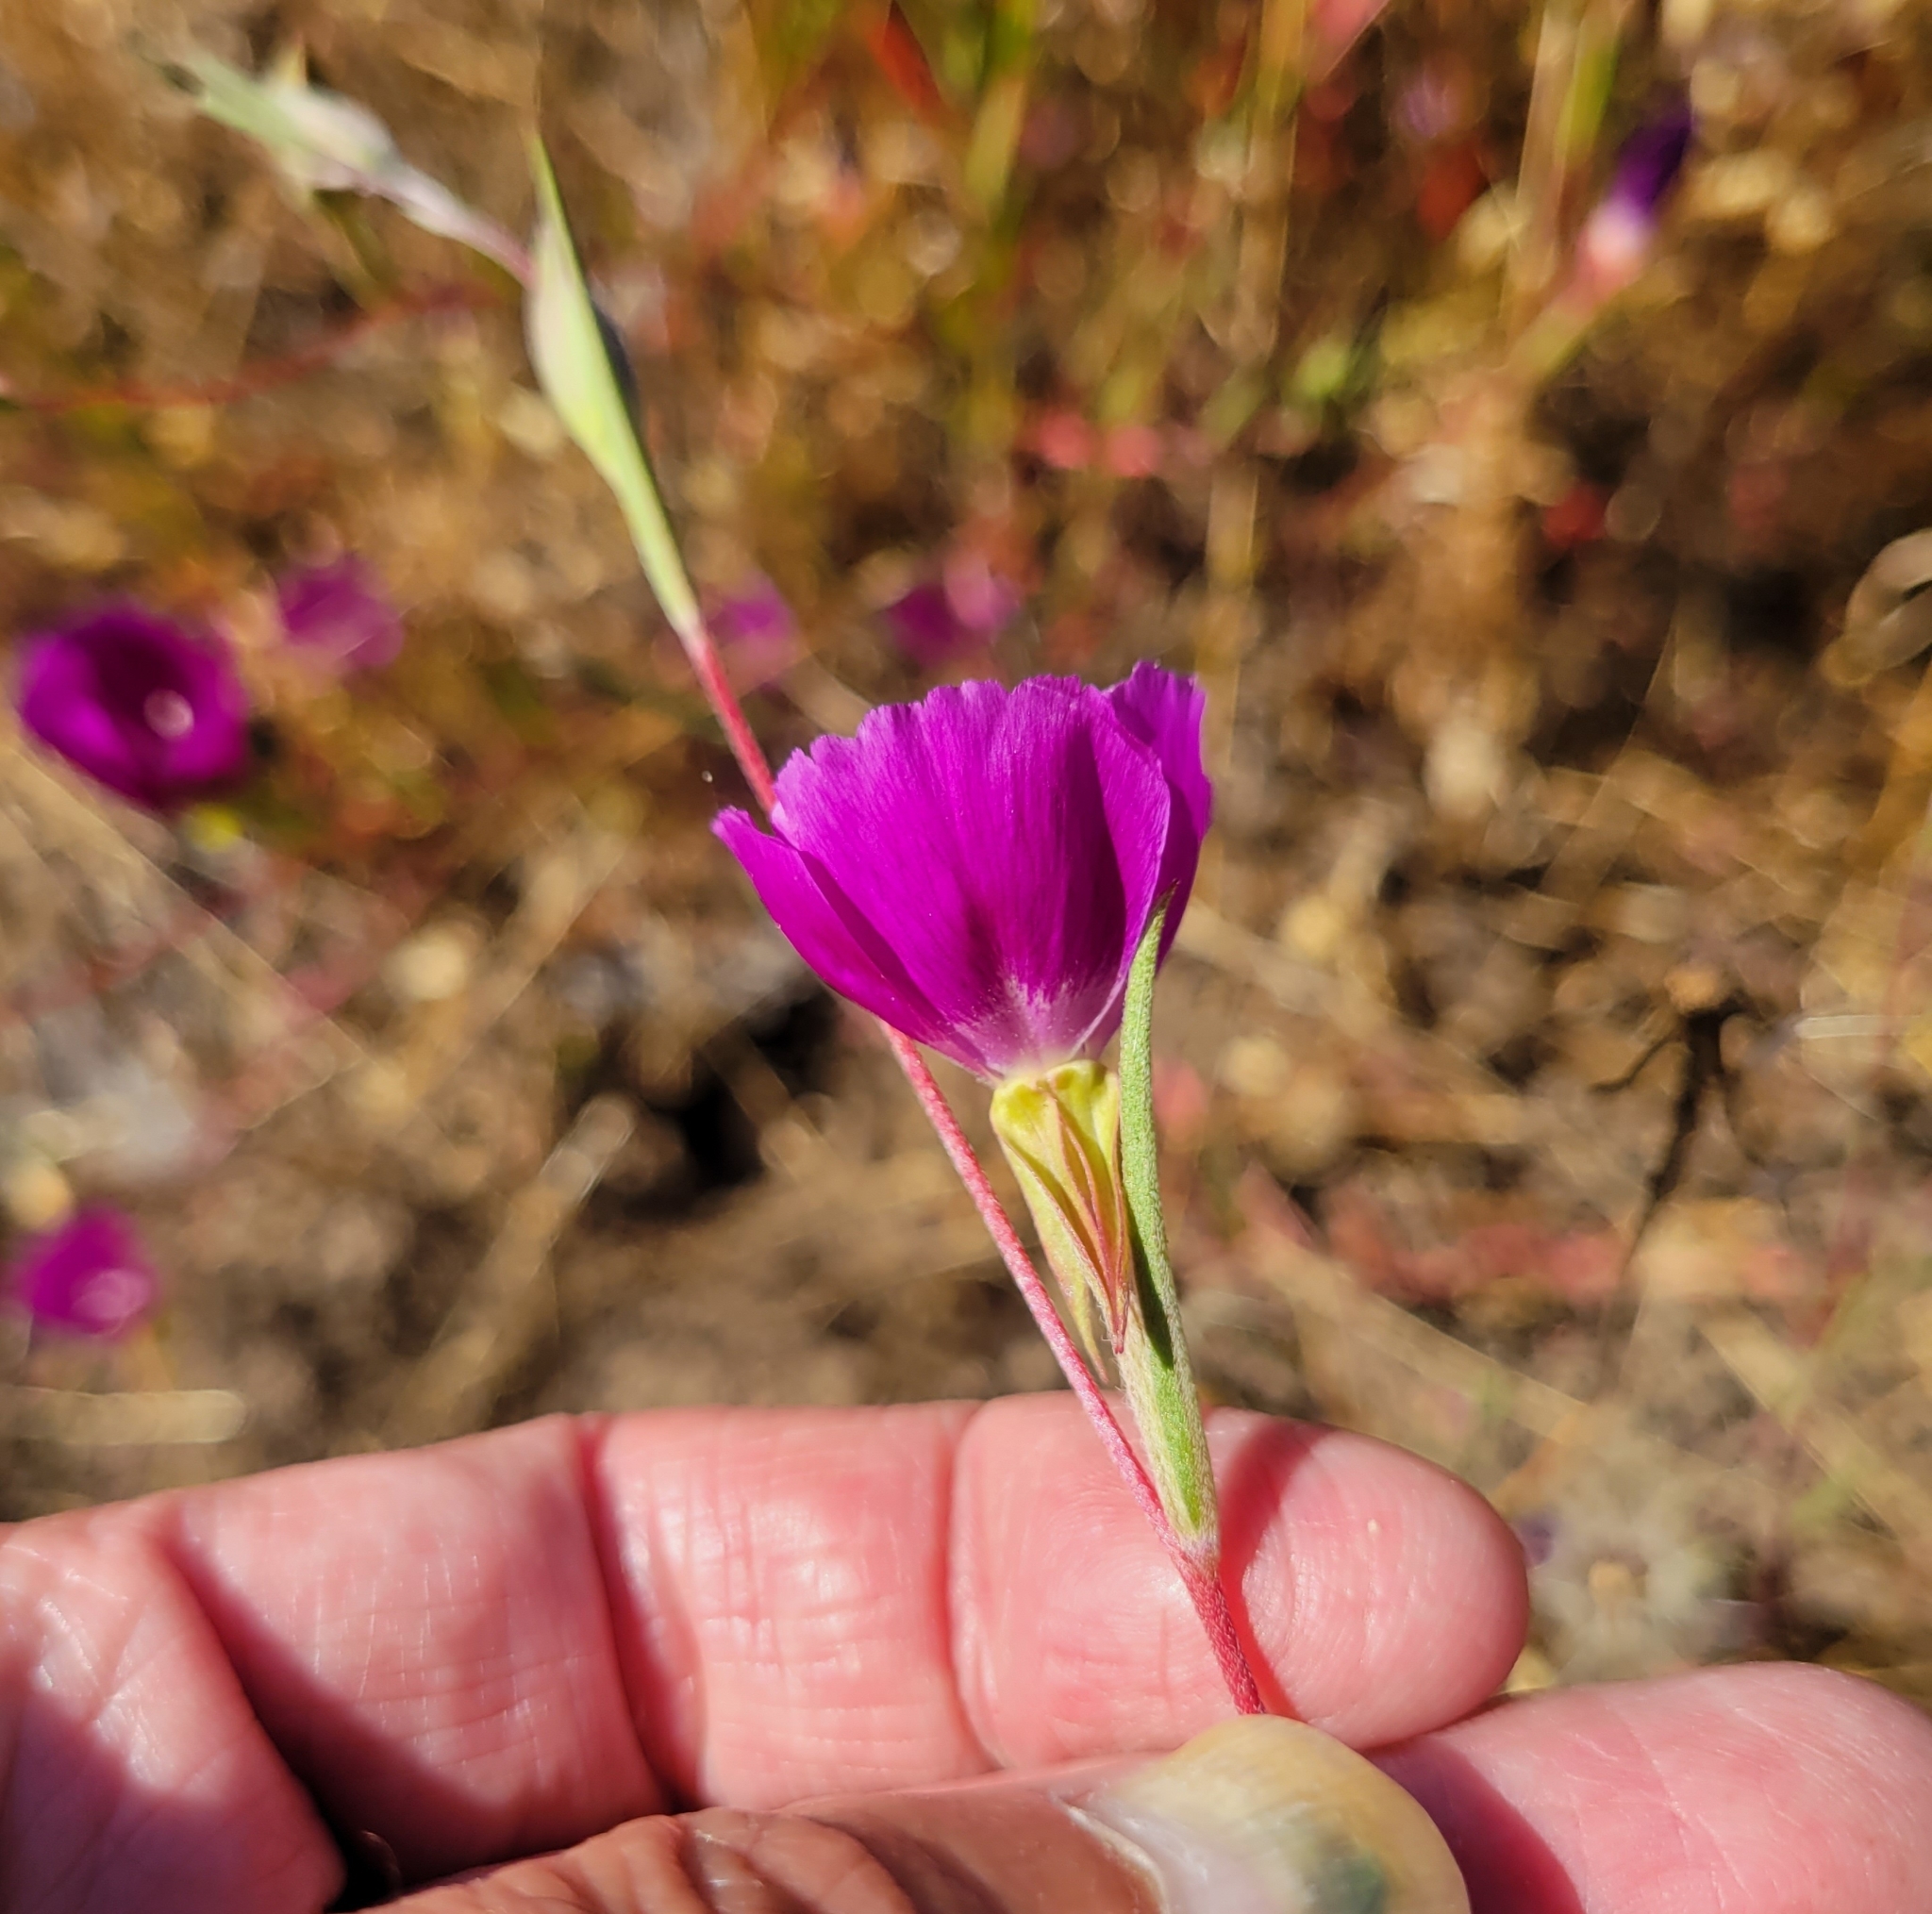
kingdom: Plantae
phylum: Tracheophyta
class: Magnoliopsida
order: Myrtales
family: Onagraceae
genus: Clarkia
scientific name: Clarkia purpurea
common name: Purple clarkia
